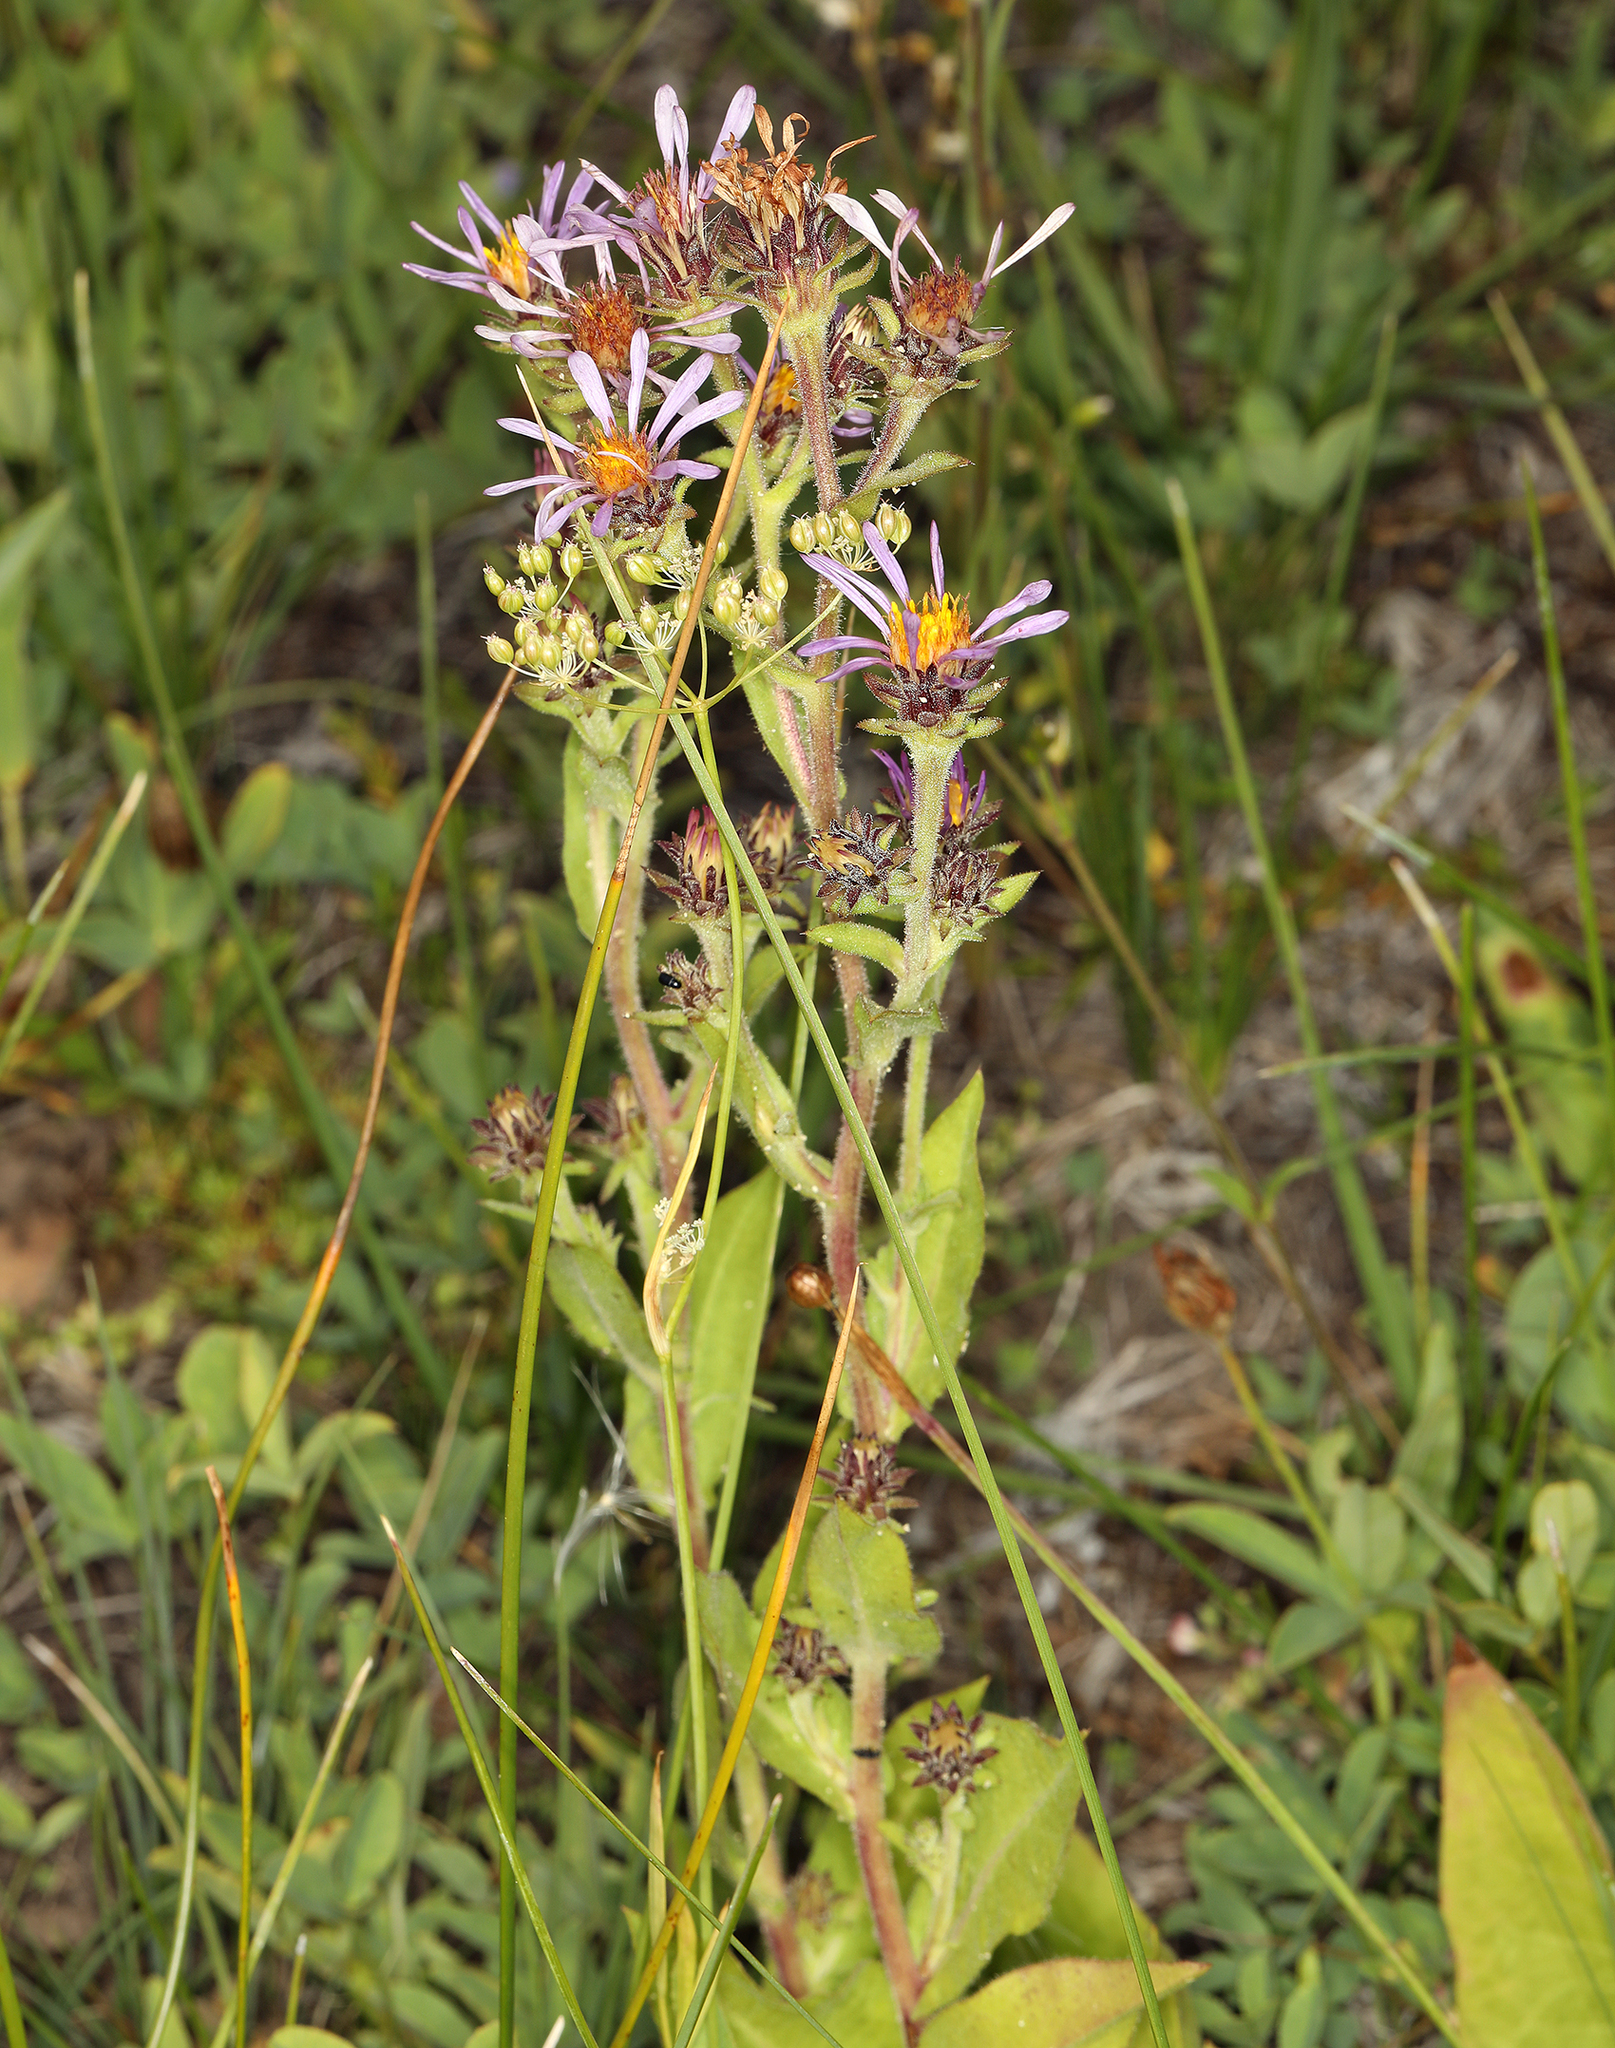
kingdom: Plantae
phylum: Tracheophyta
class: Magnoliopsida
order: Asterales
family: Asteraceae
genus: Eurybia
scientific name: Eurybia integrifolia
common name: Thick-stem aster
